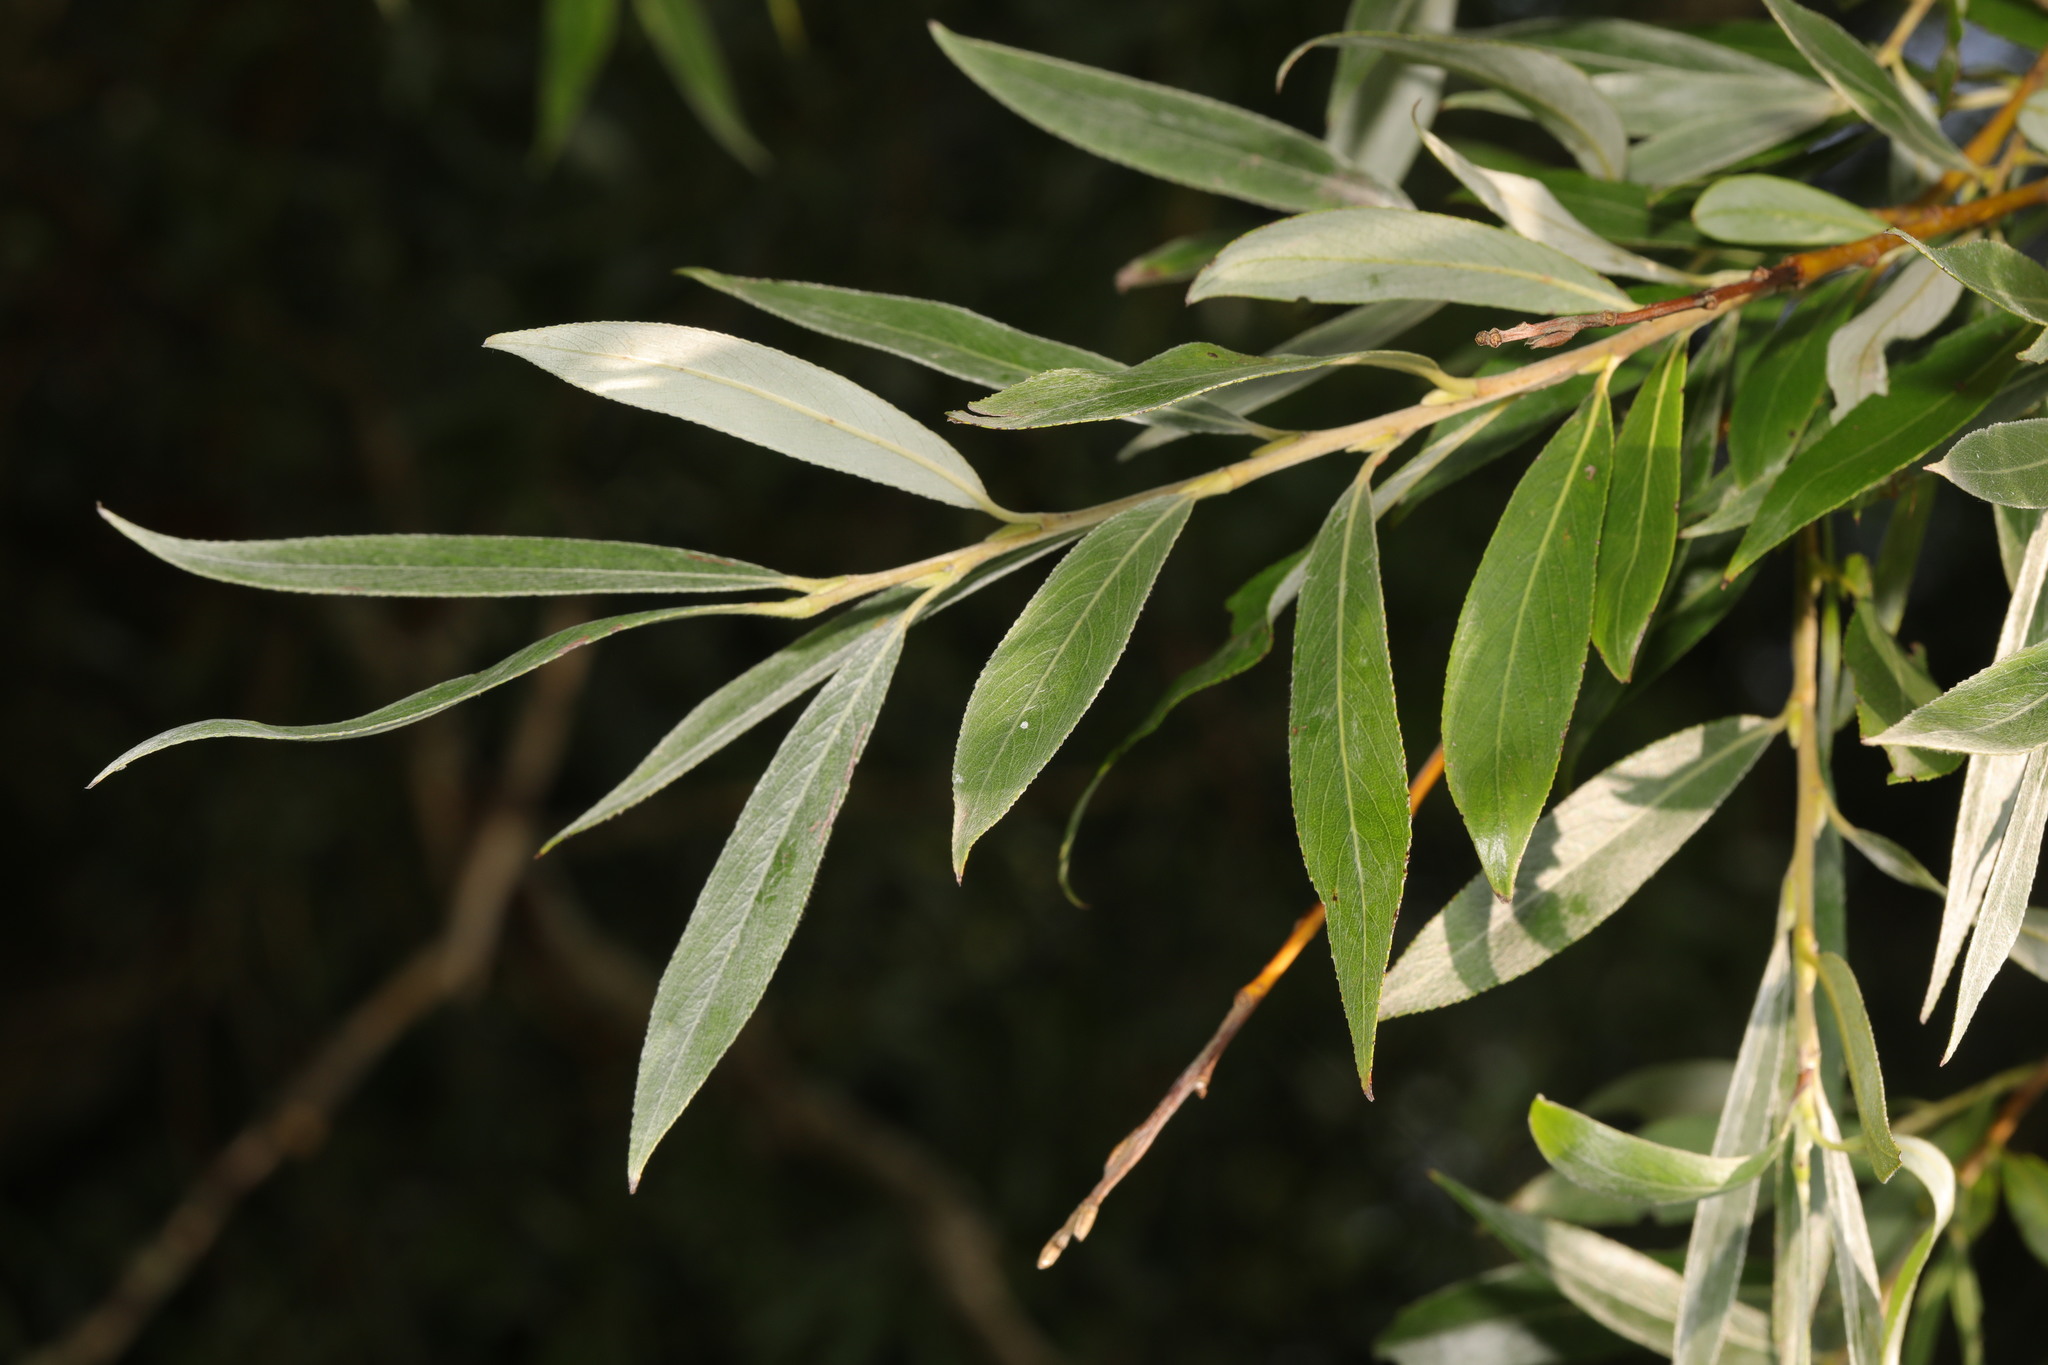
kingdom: Plantae
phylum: Tracheophyta
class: Magnoliopsida
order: Malpighiales
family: Salicaceae
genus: Salix
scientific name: Salix alba
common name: White willow
